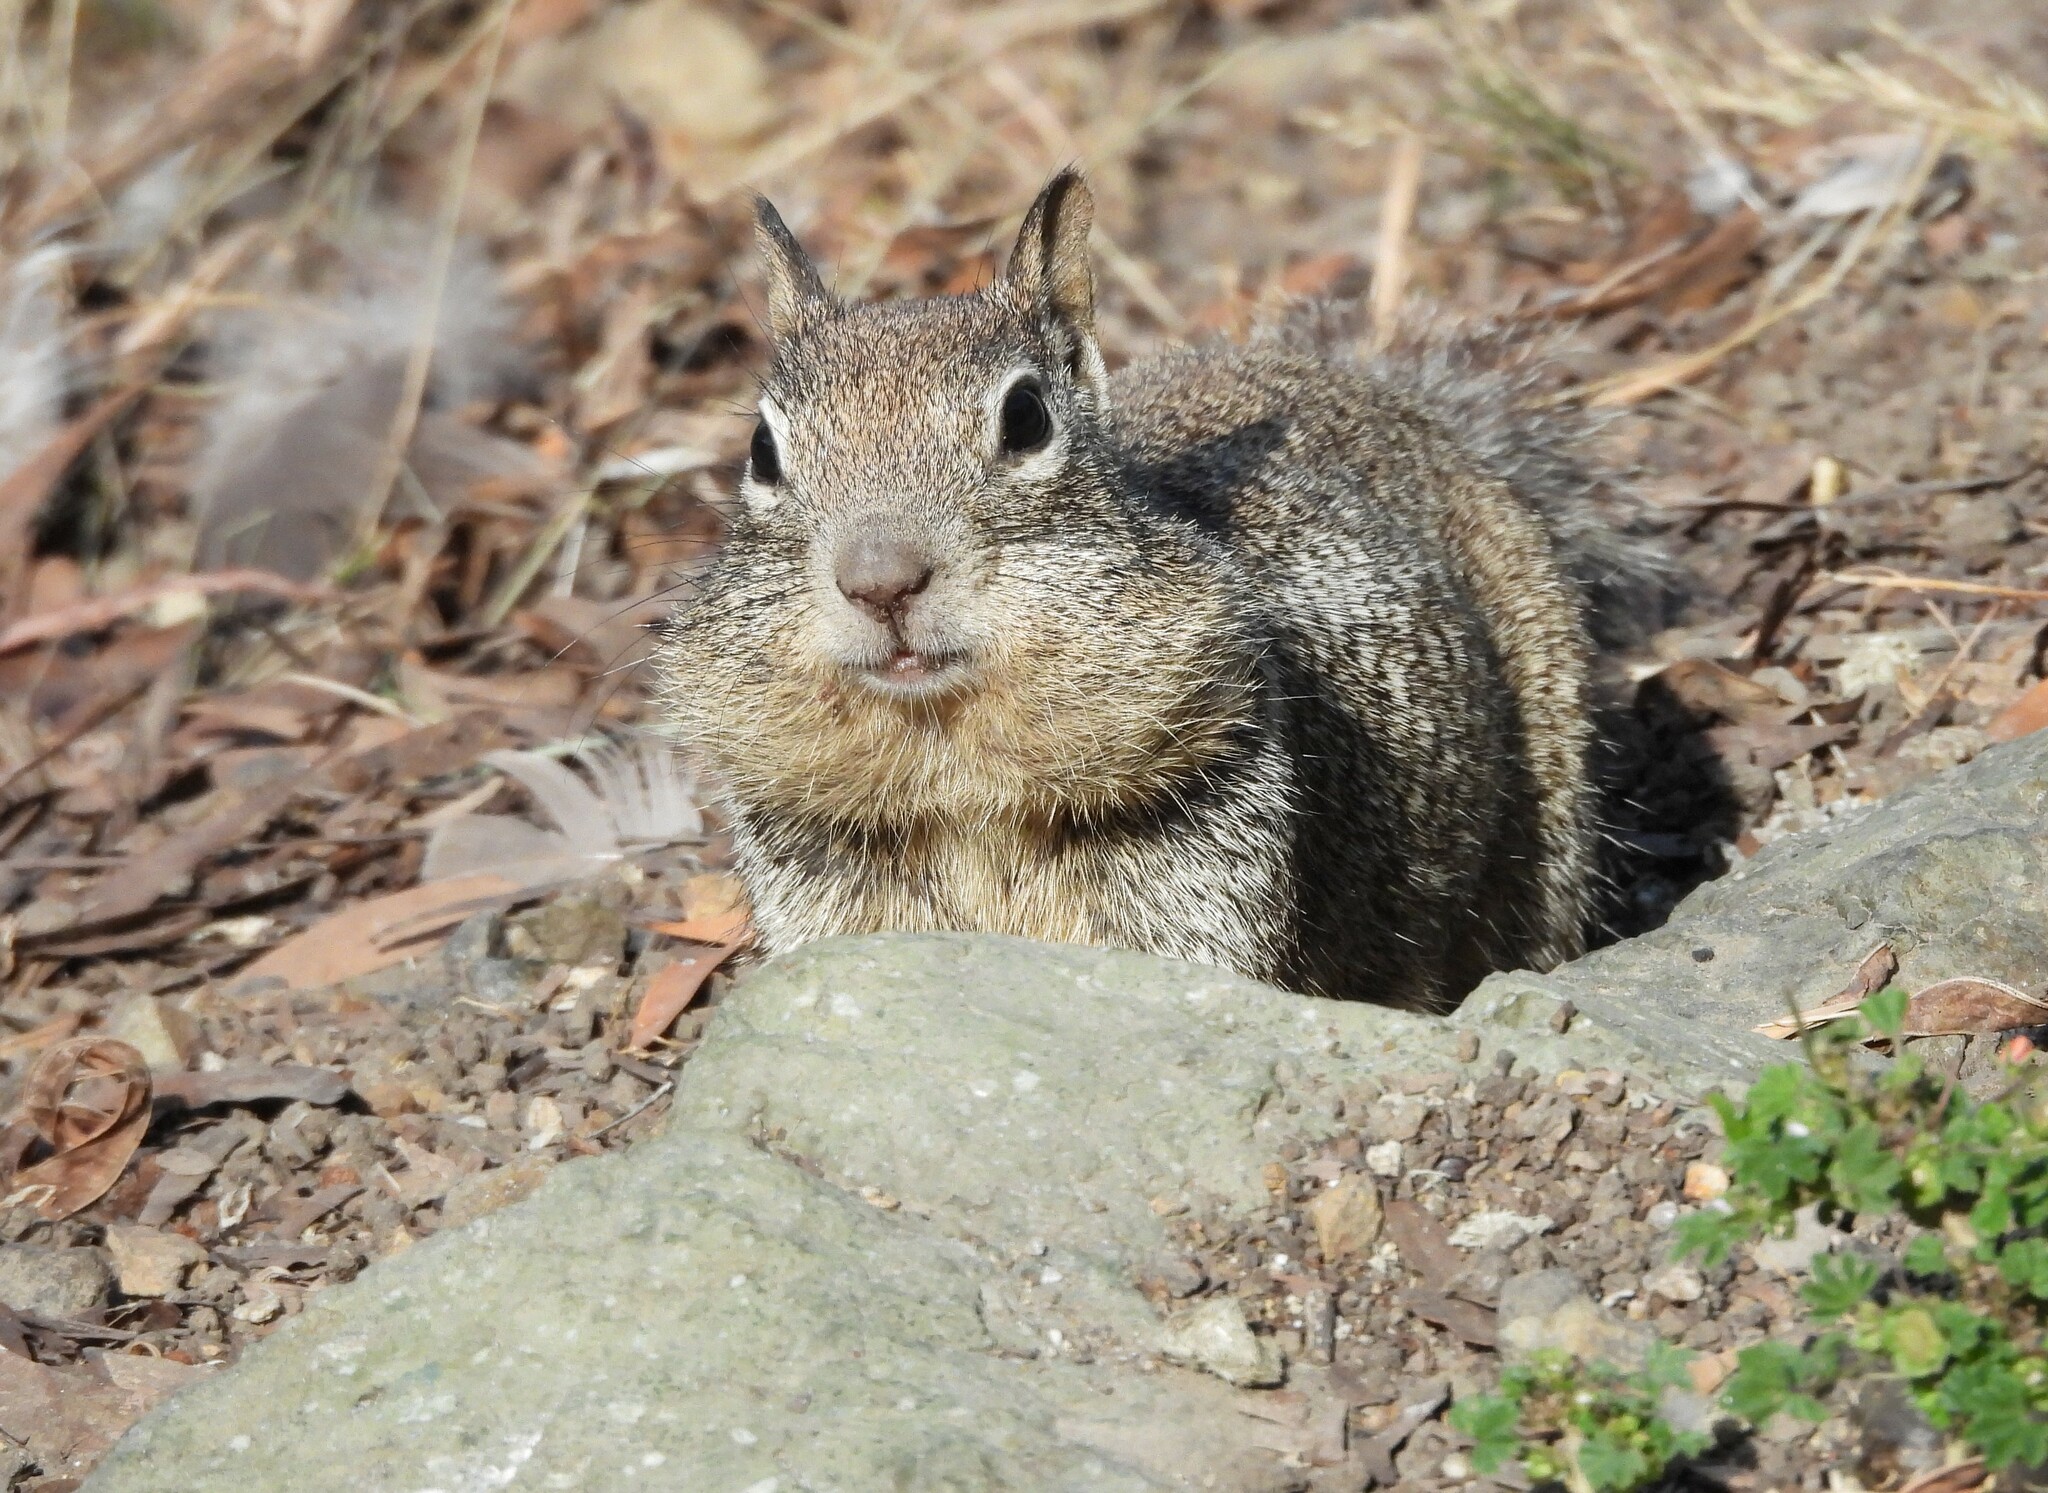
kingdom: Animalia
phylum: Chordata
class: Mammalia
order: Rodentia
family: Sciuridae
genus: Otospermophilus
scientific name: Otospermophilus beecheyi
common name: California ground squirrel
